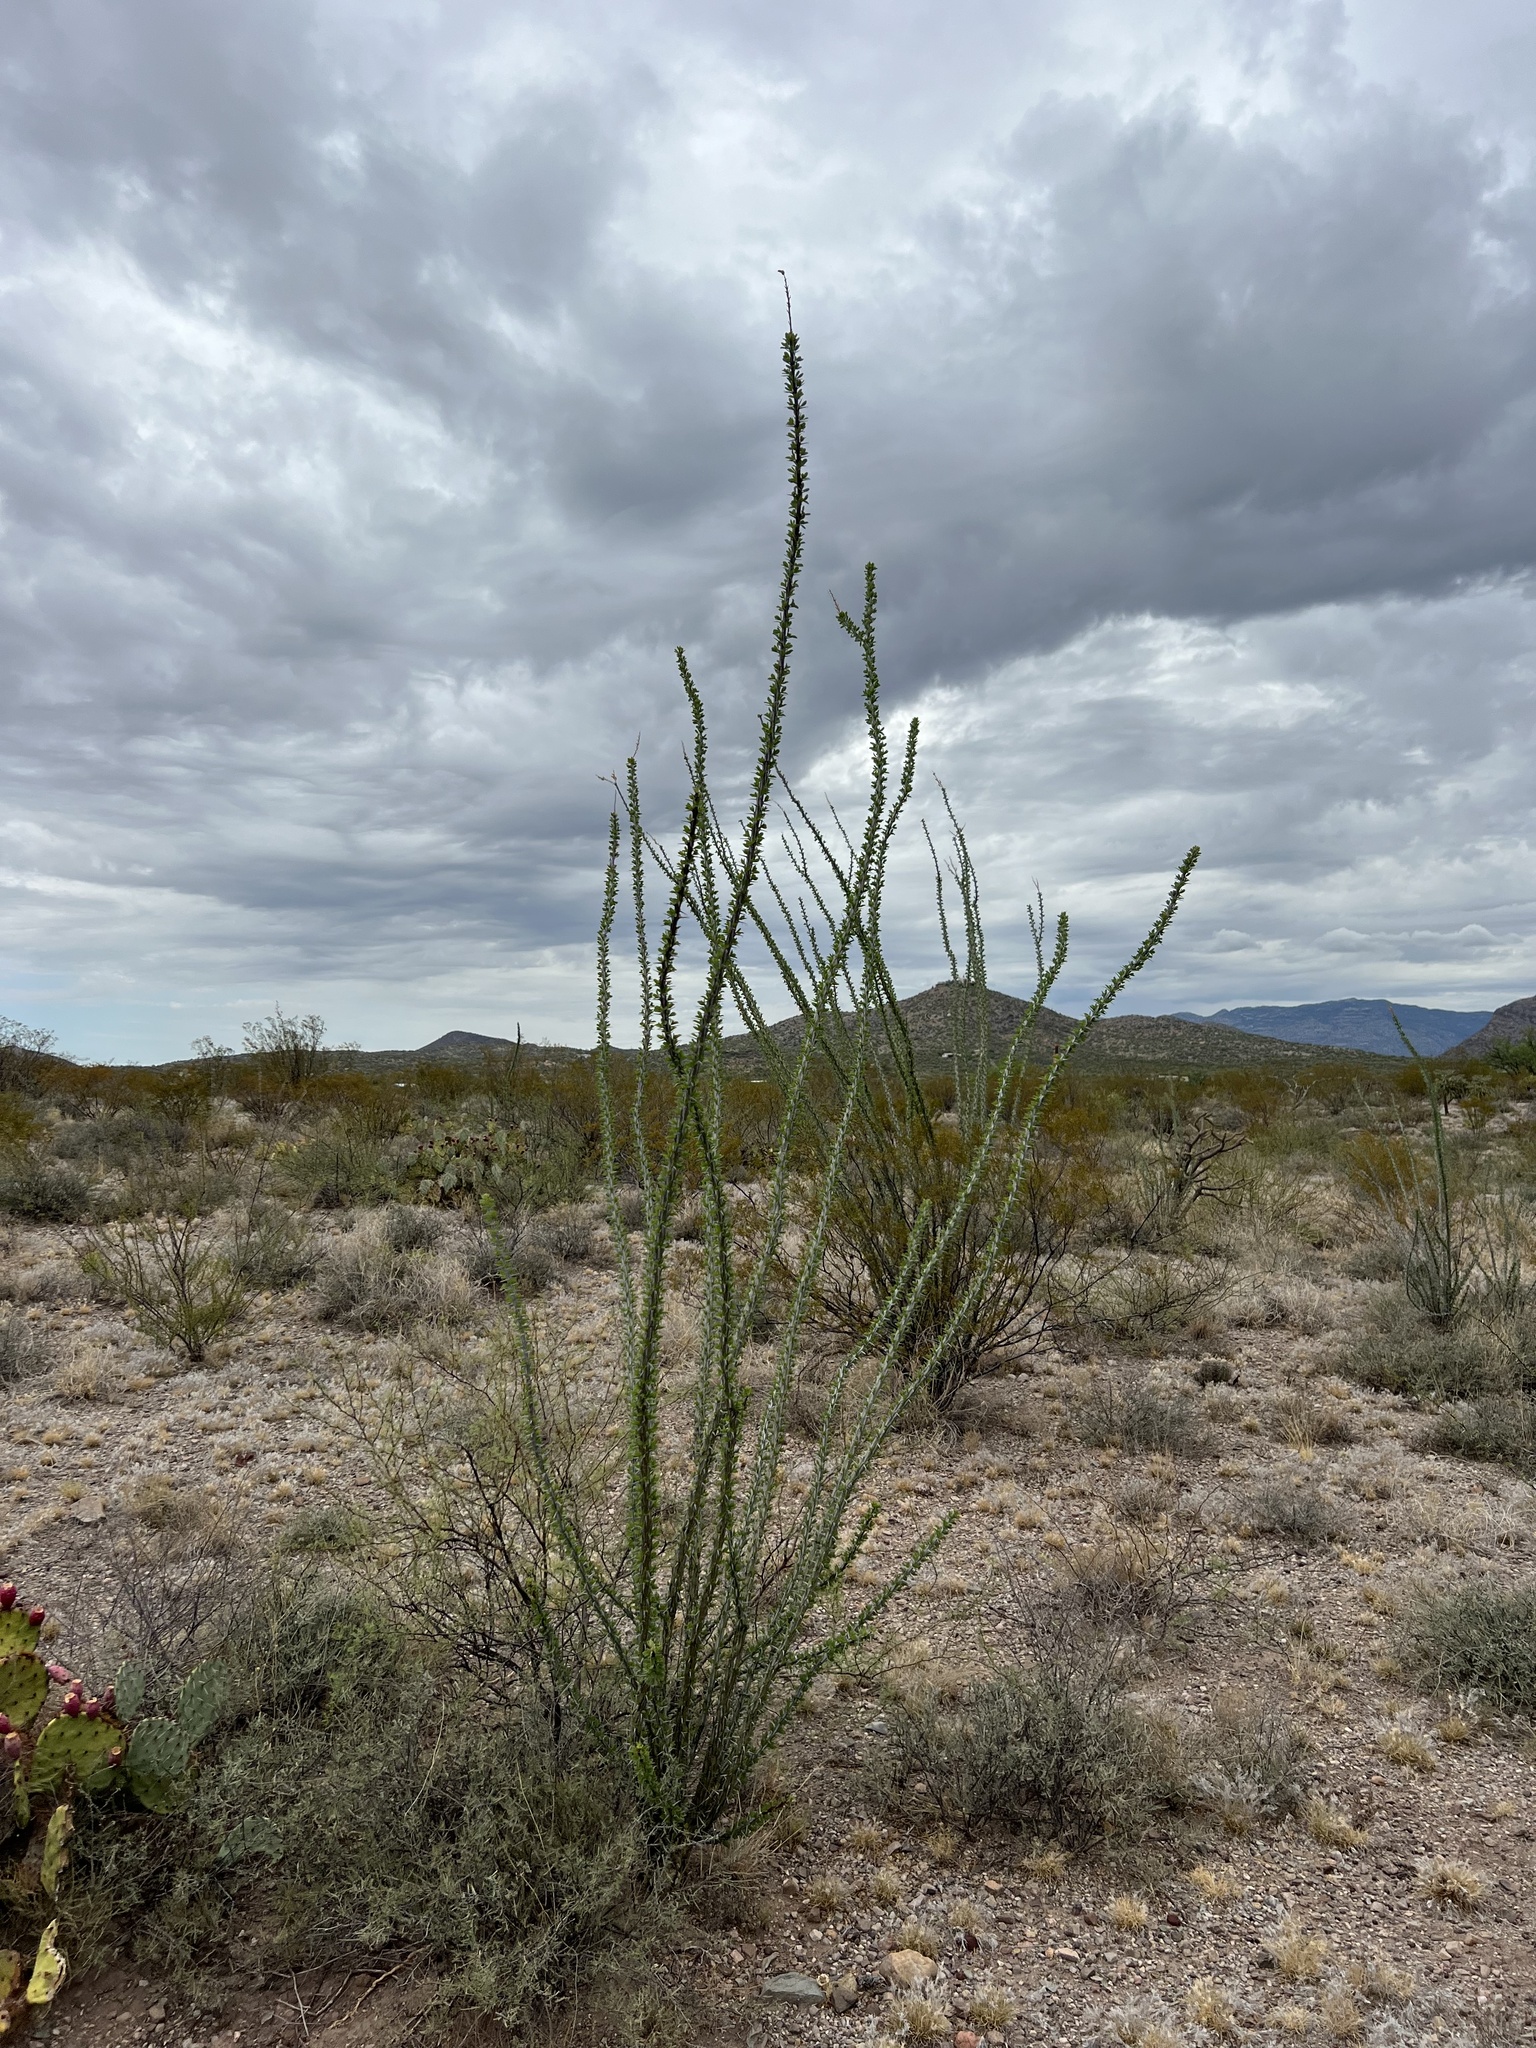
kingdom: Plantae
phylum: Tracheophyta
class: Magnoliopsida
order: Ericales
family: Fouquieriaceae
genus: Fouquieria
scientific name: Fouquieria splendens
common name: Vine-cactus
